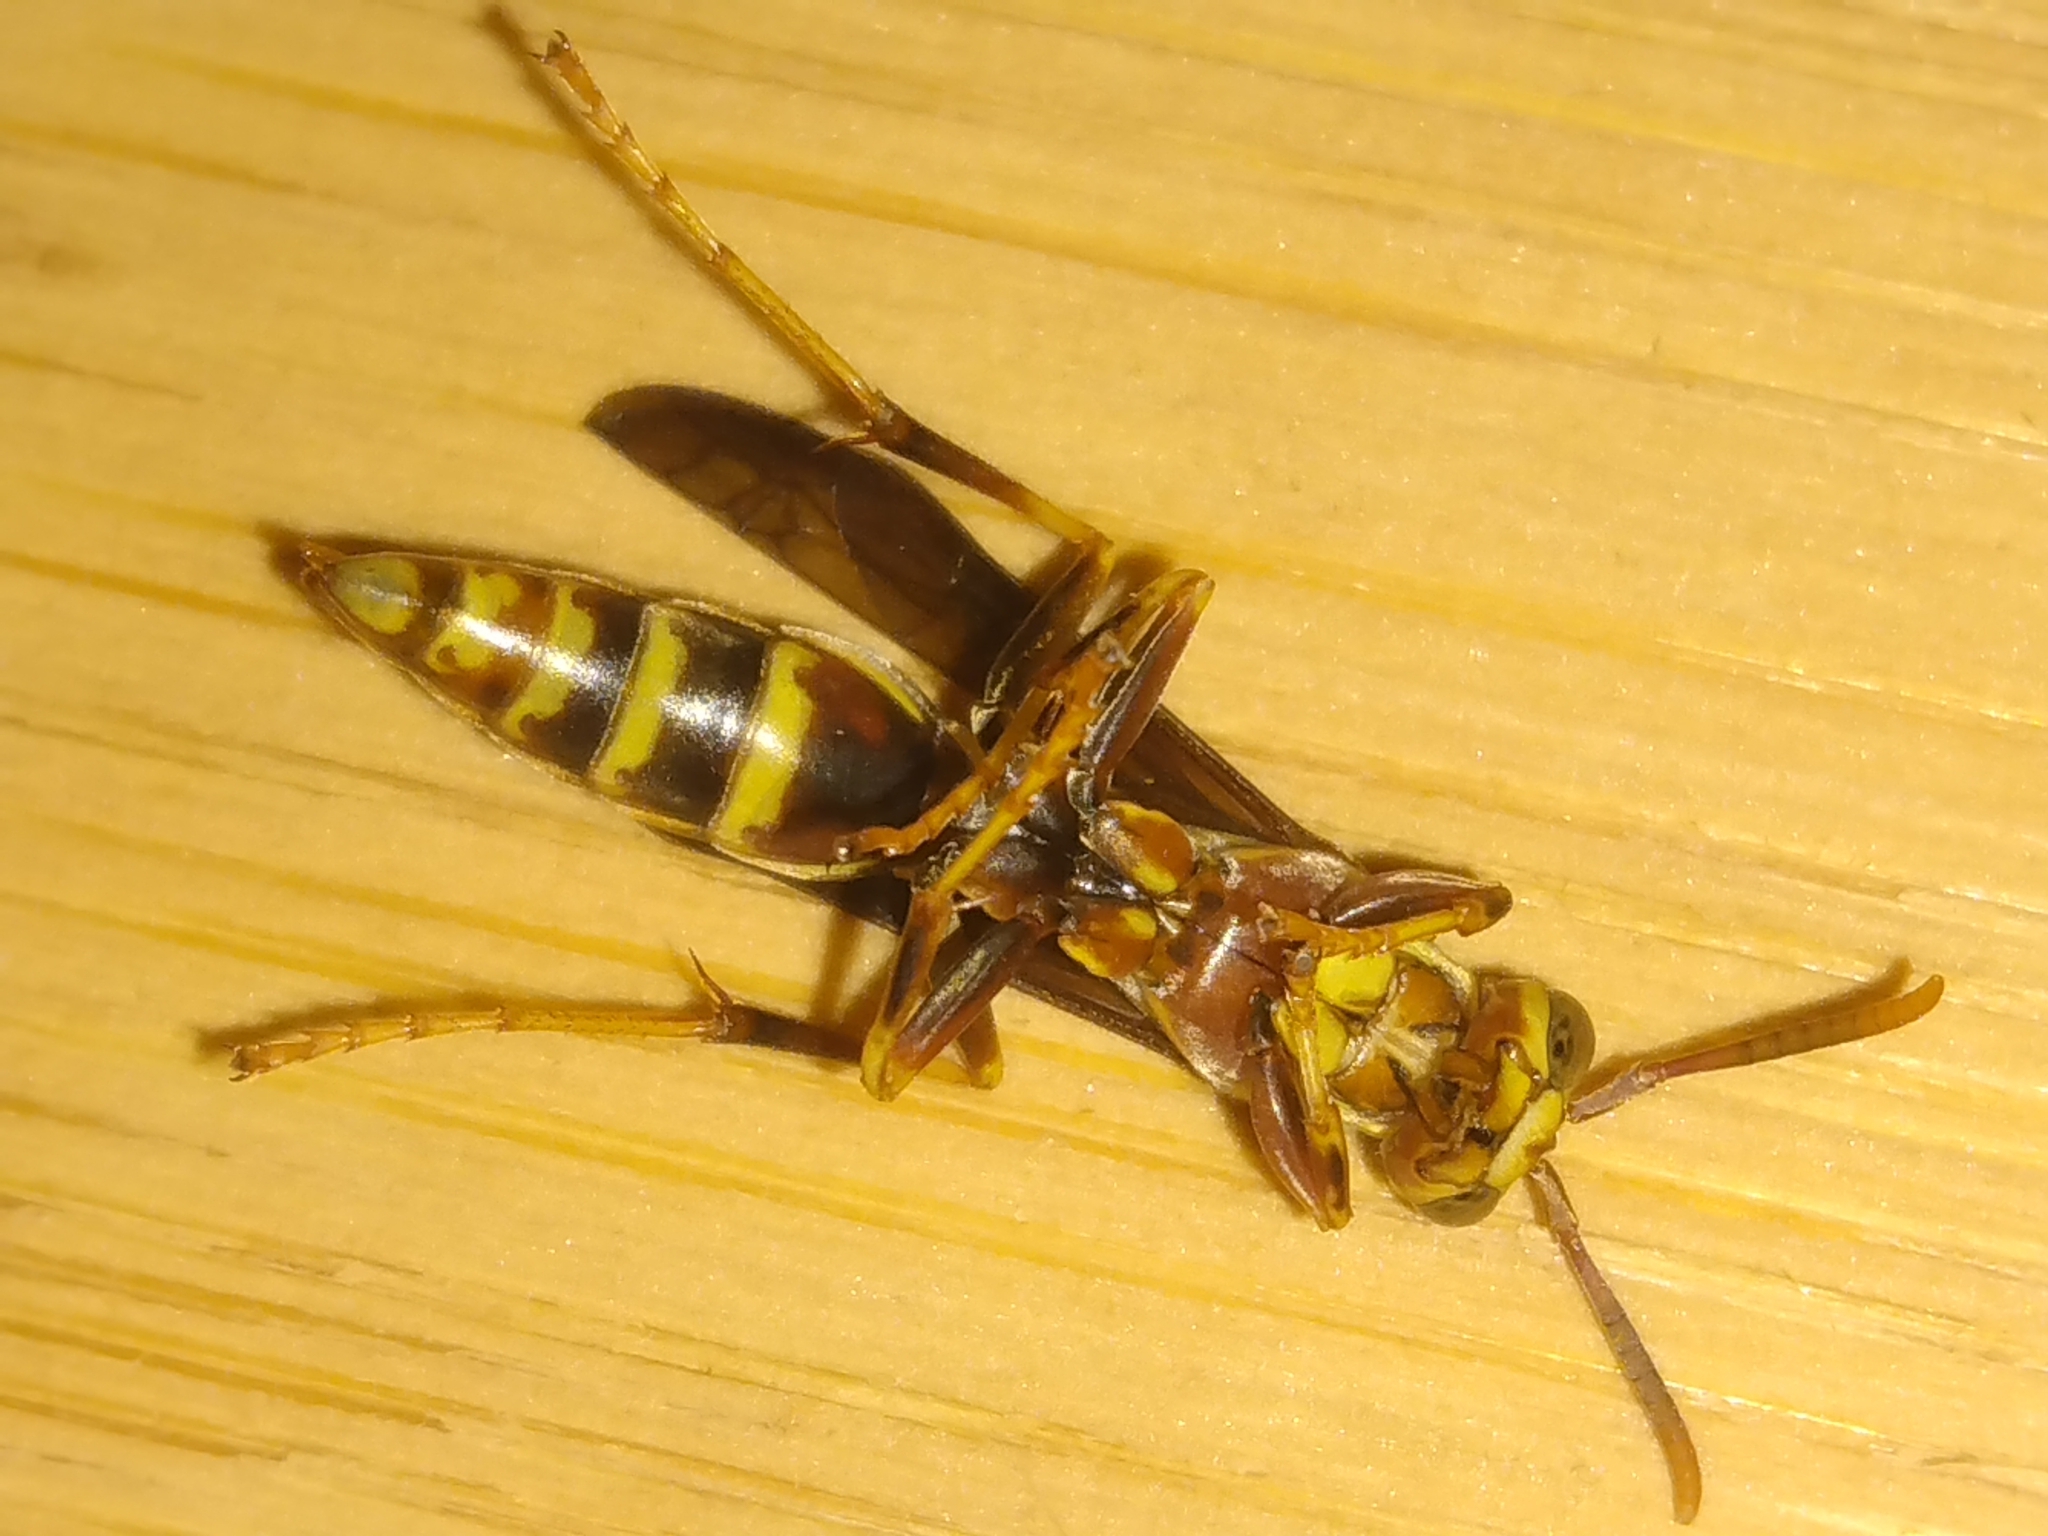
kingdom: Animalia
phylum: Arthropoda
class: Insecta
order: Hymenoptera
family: Eumenidae
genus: Polistes
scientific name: Polistes exclamans
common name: Paper wasp
